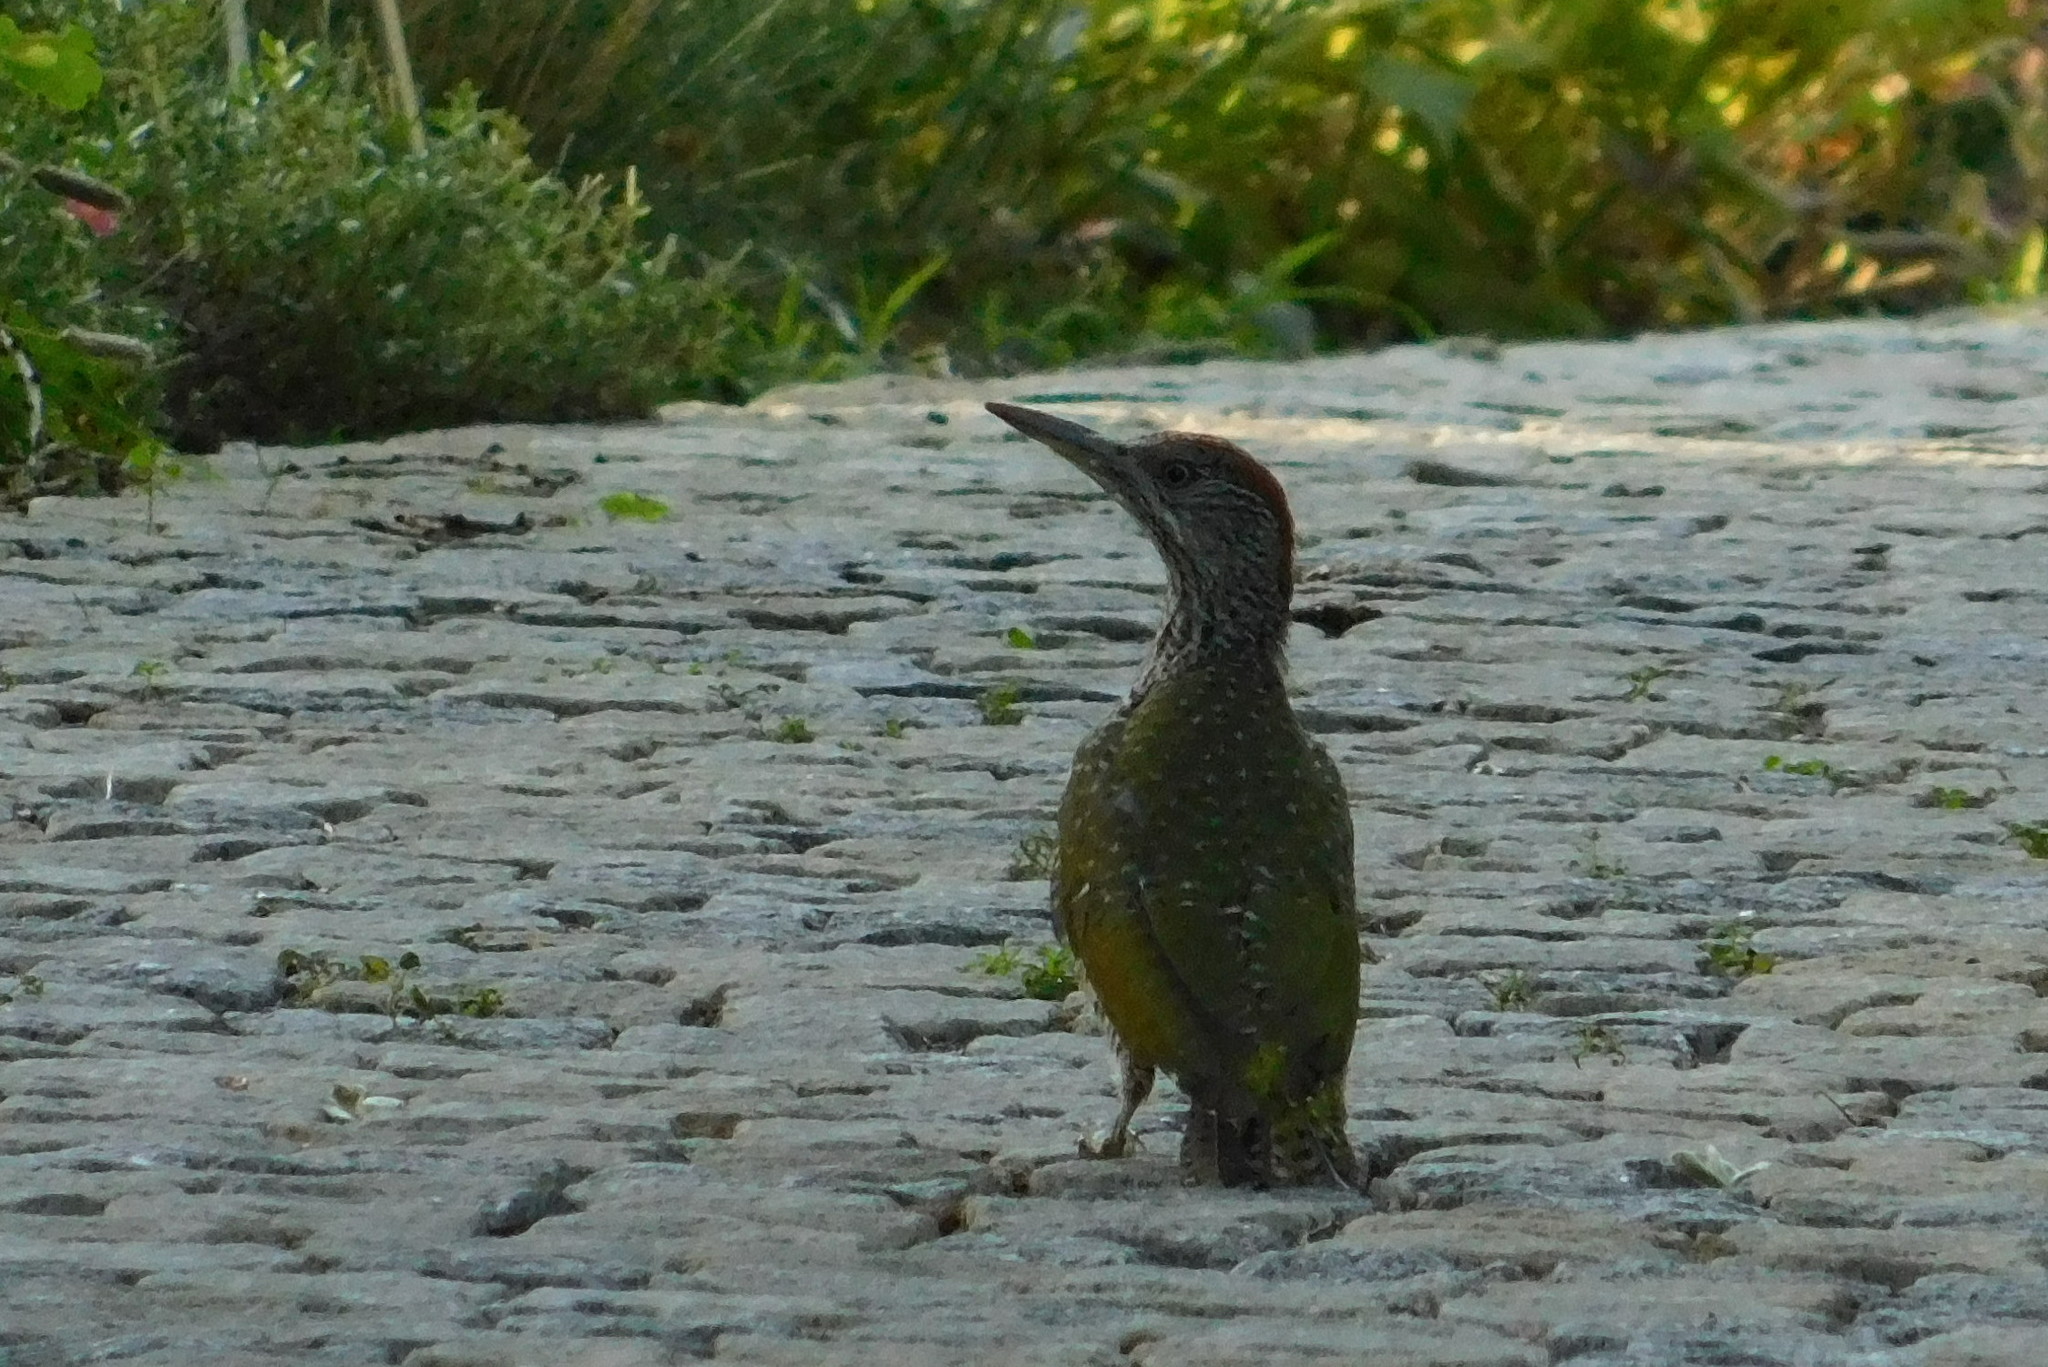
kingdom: Animalia
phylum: Chordata
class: Aves
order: Piciformes
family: Picidae
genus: Picus
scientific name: Picus viridis
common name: European green woodpecker
